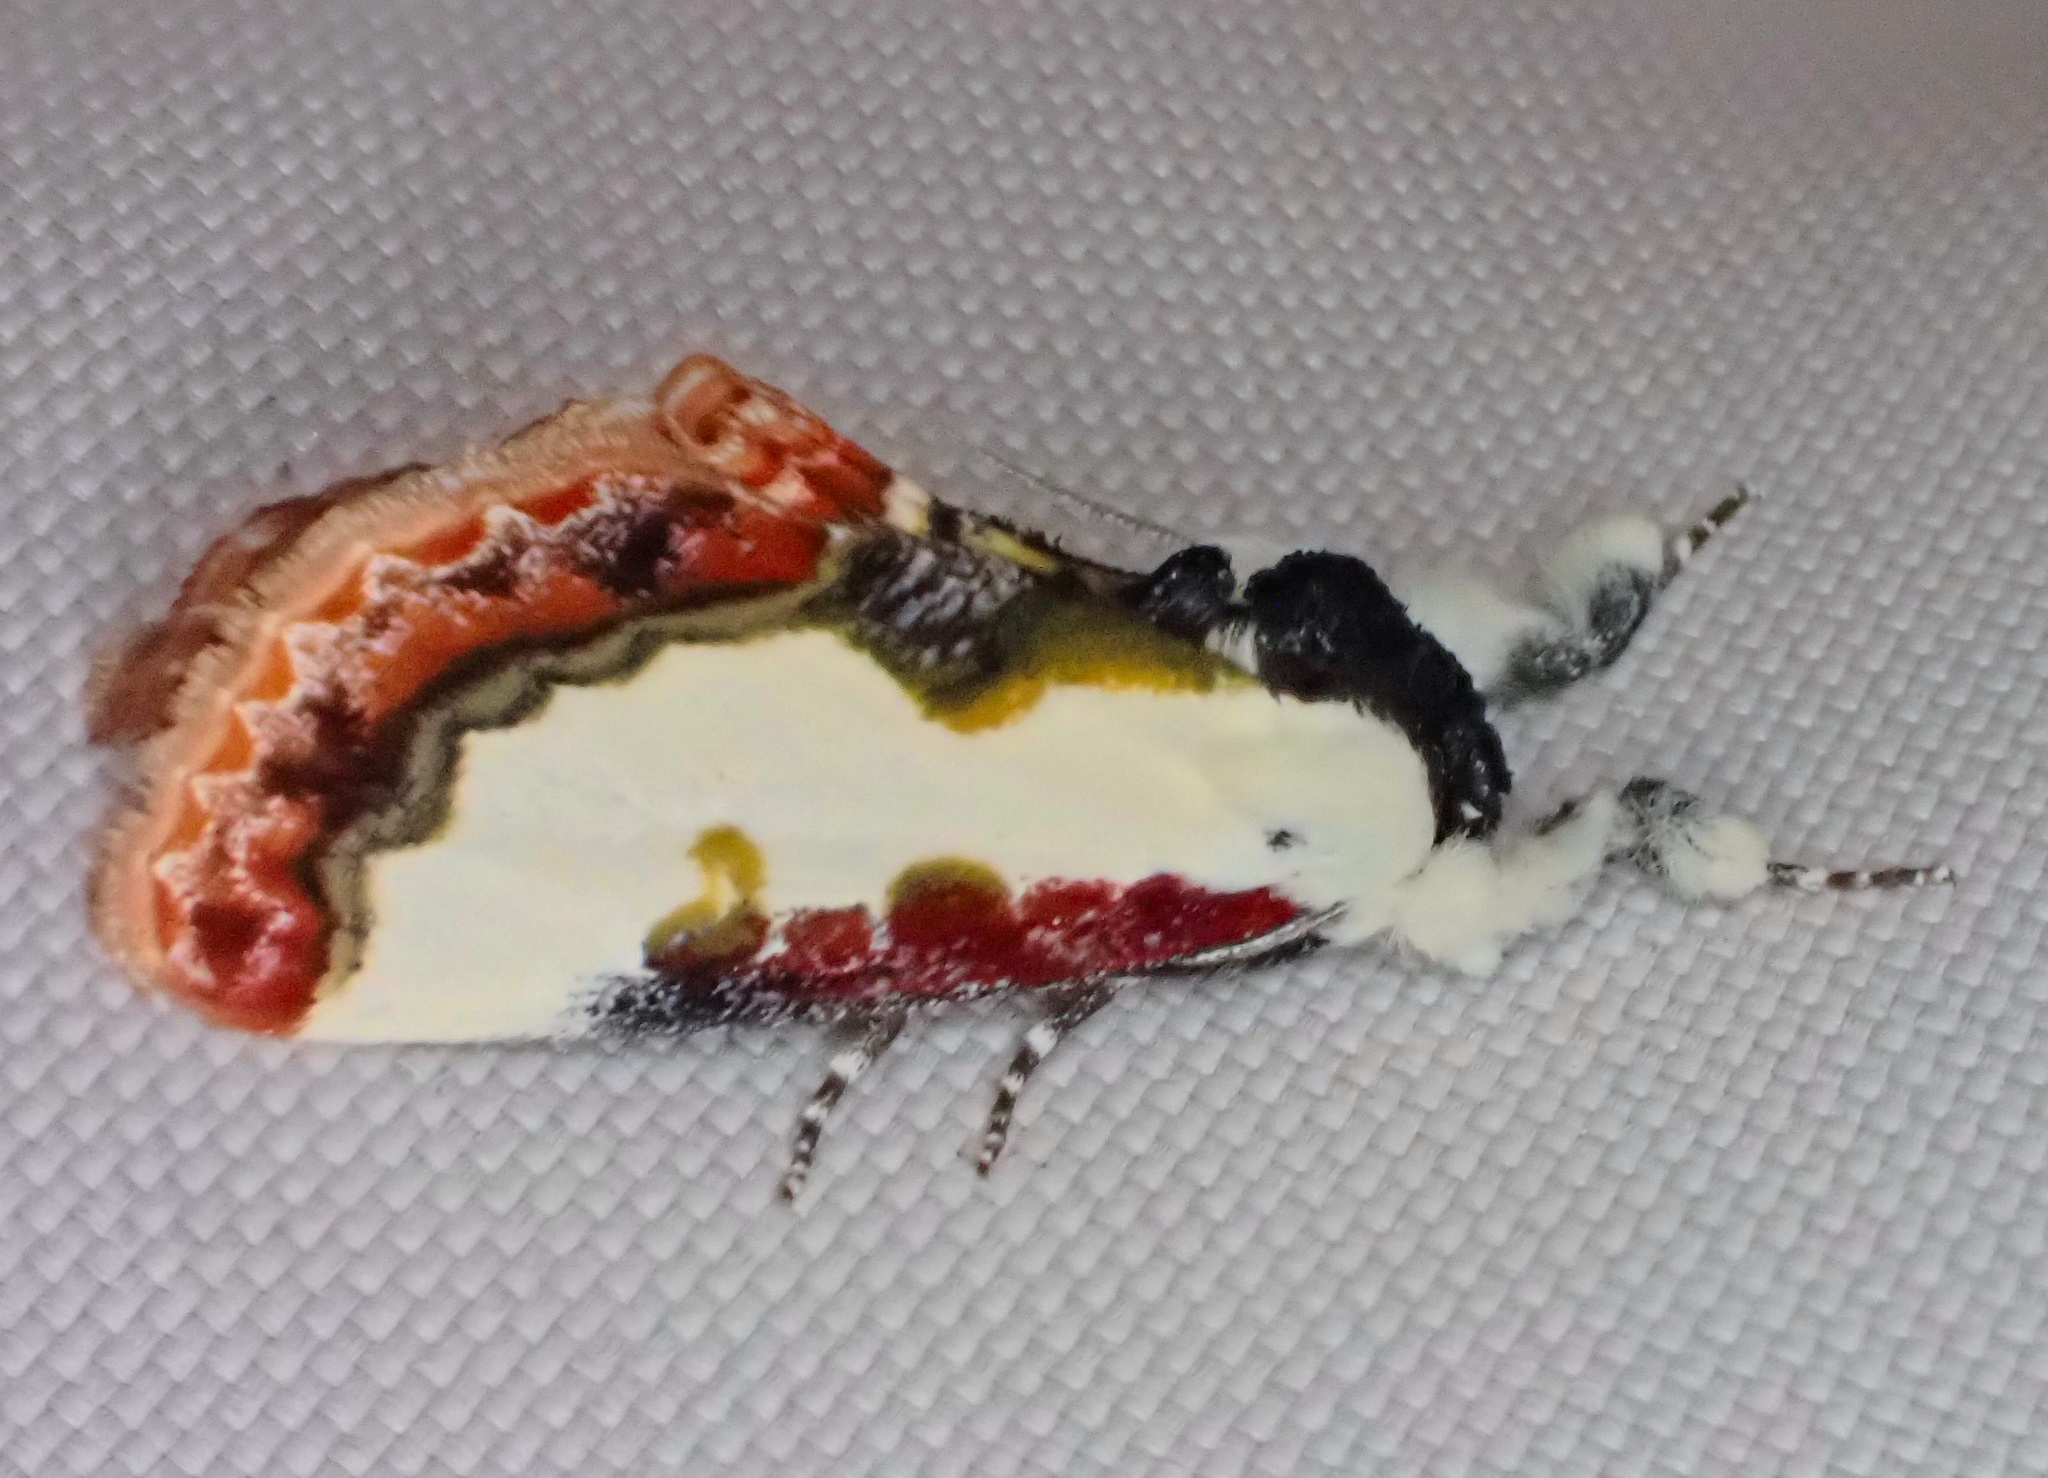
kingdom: Animalia
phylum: Arthropoda
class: Insecta
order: Lepidoptera
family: Noctuidae
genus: Eudryas
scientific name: Eudryas unio
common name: Pearly wood-nymph
